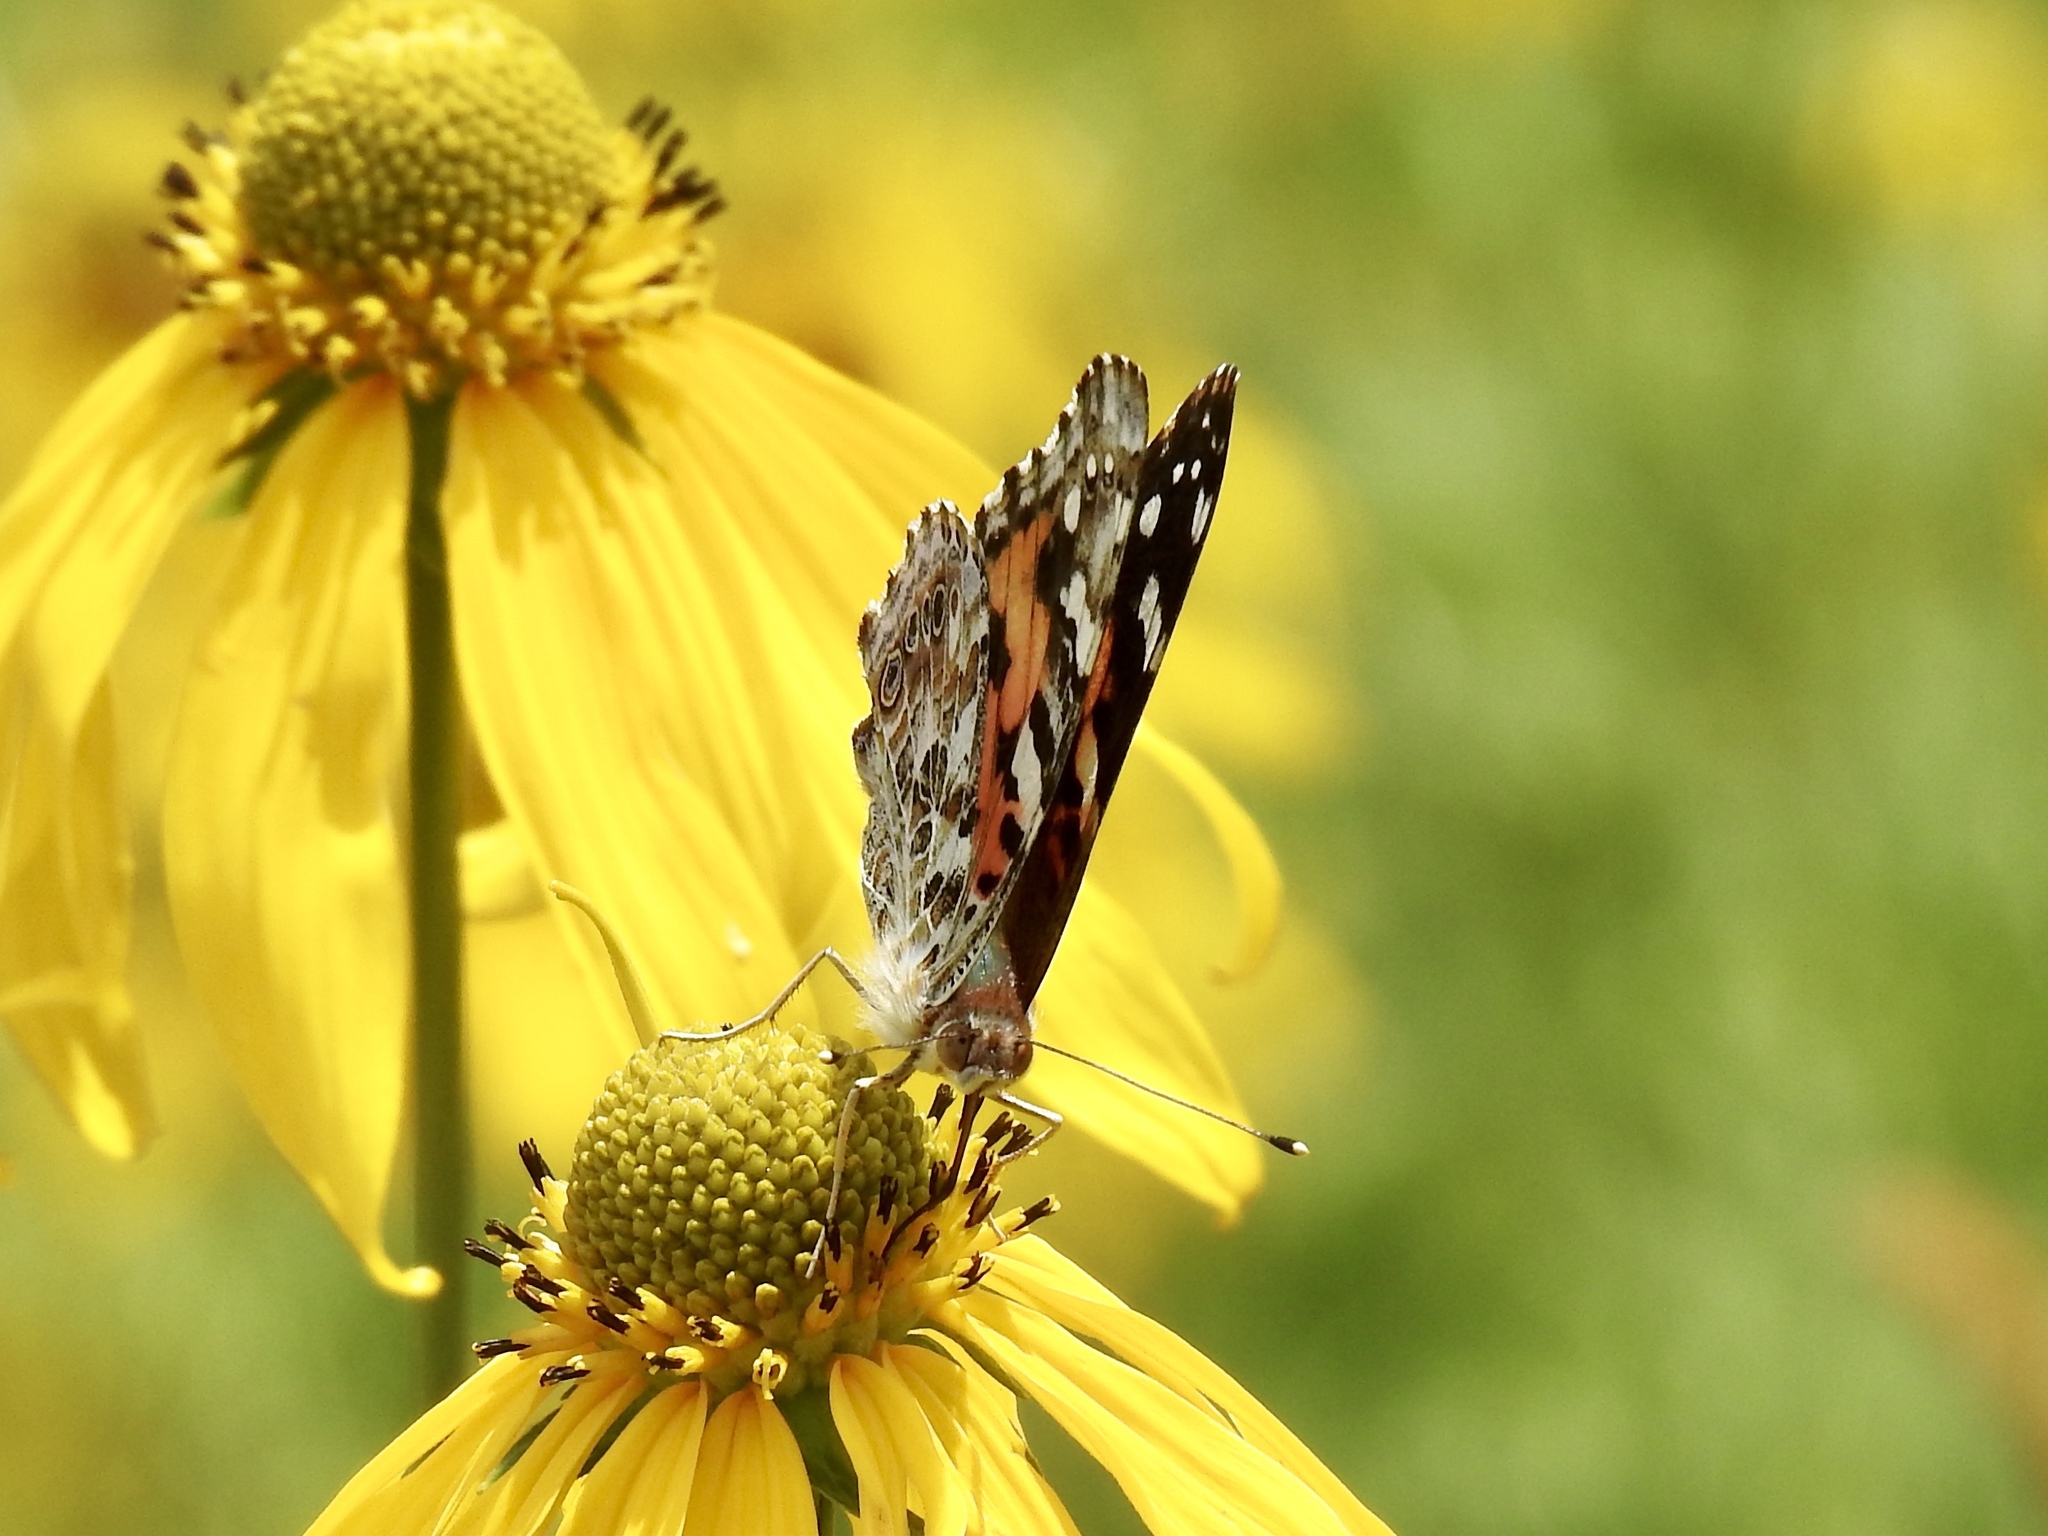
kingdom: Animalia
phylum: Arthropoda
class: Insecta
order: Lepidoptera
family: Nymphalidae
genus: Vanessa
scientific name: Vanessa cardui
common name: Painted lady
